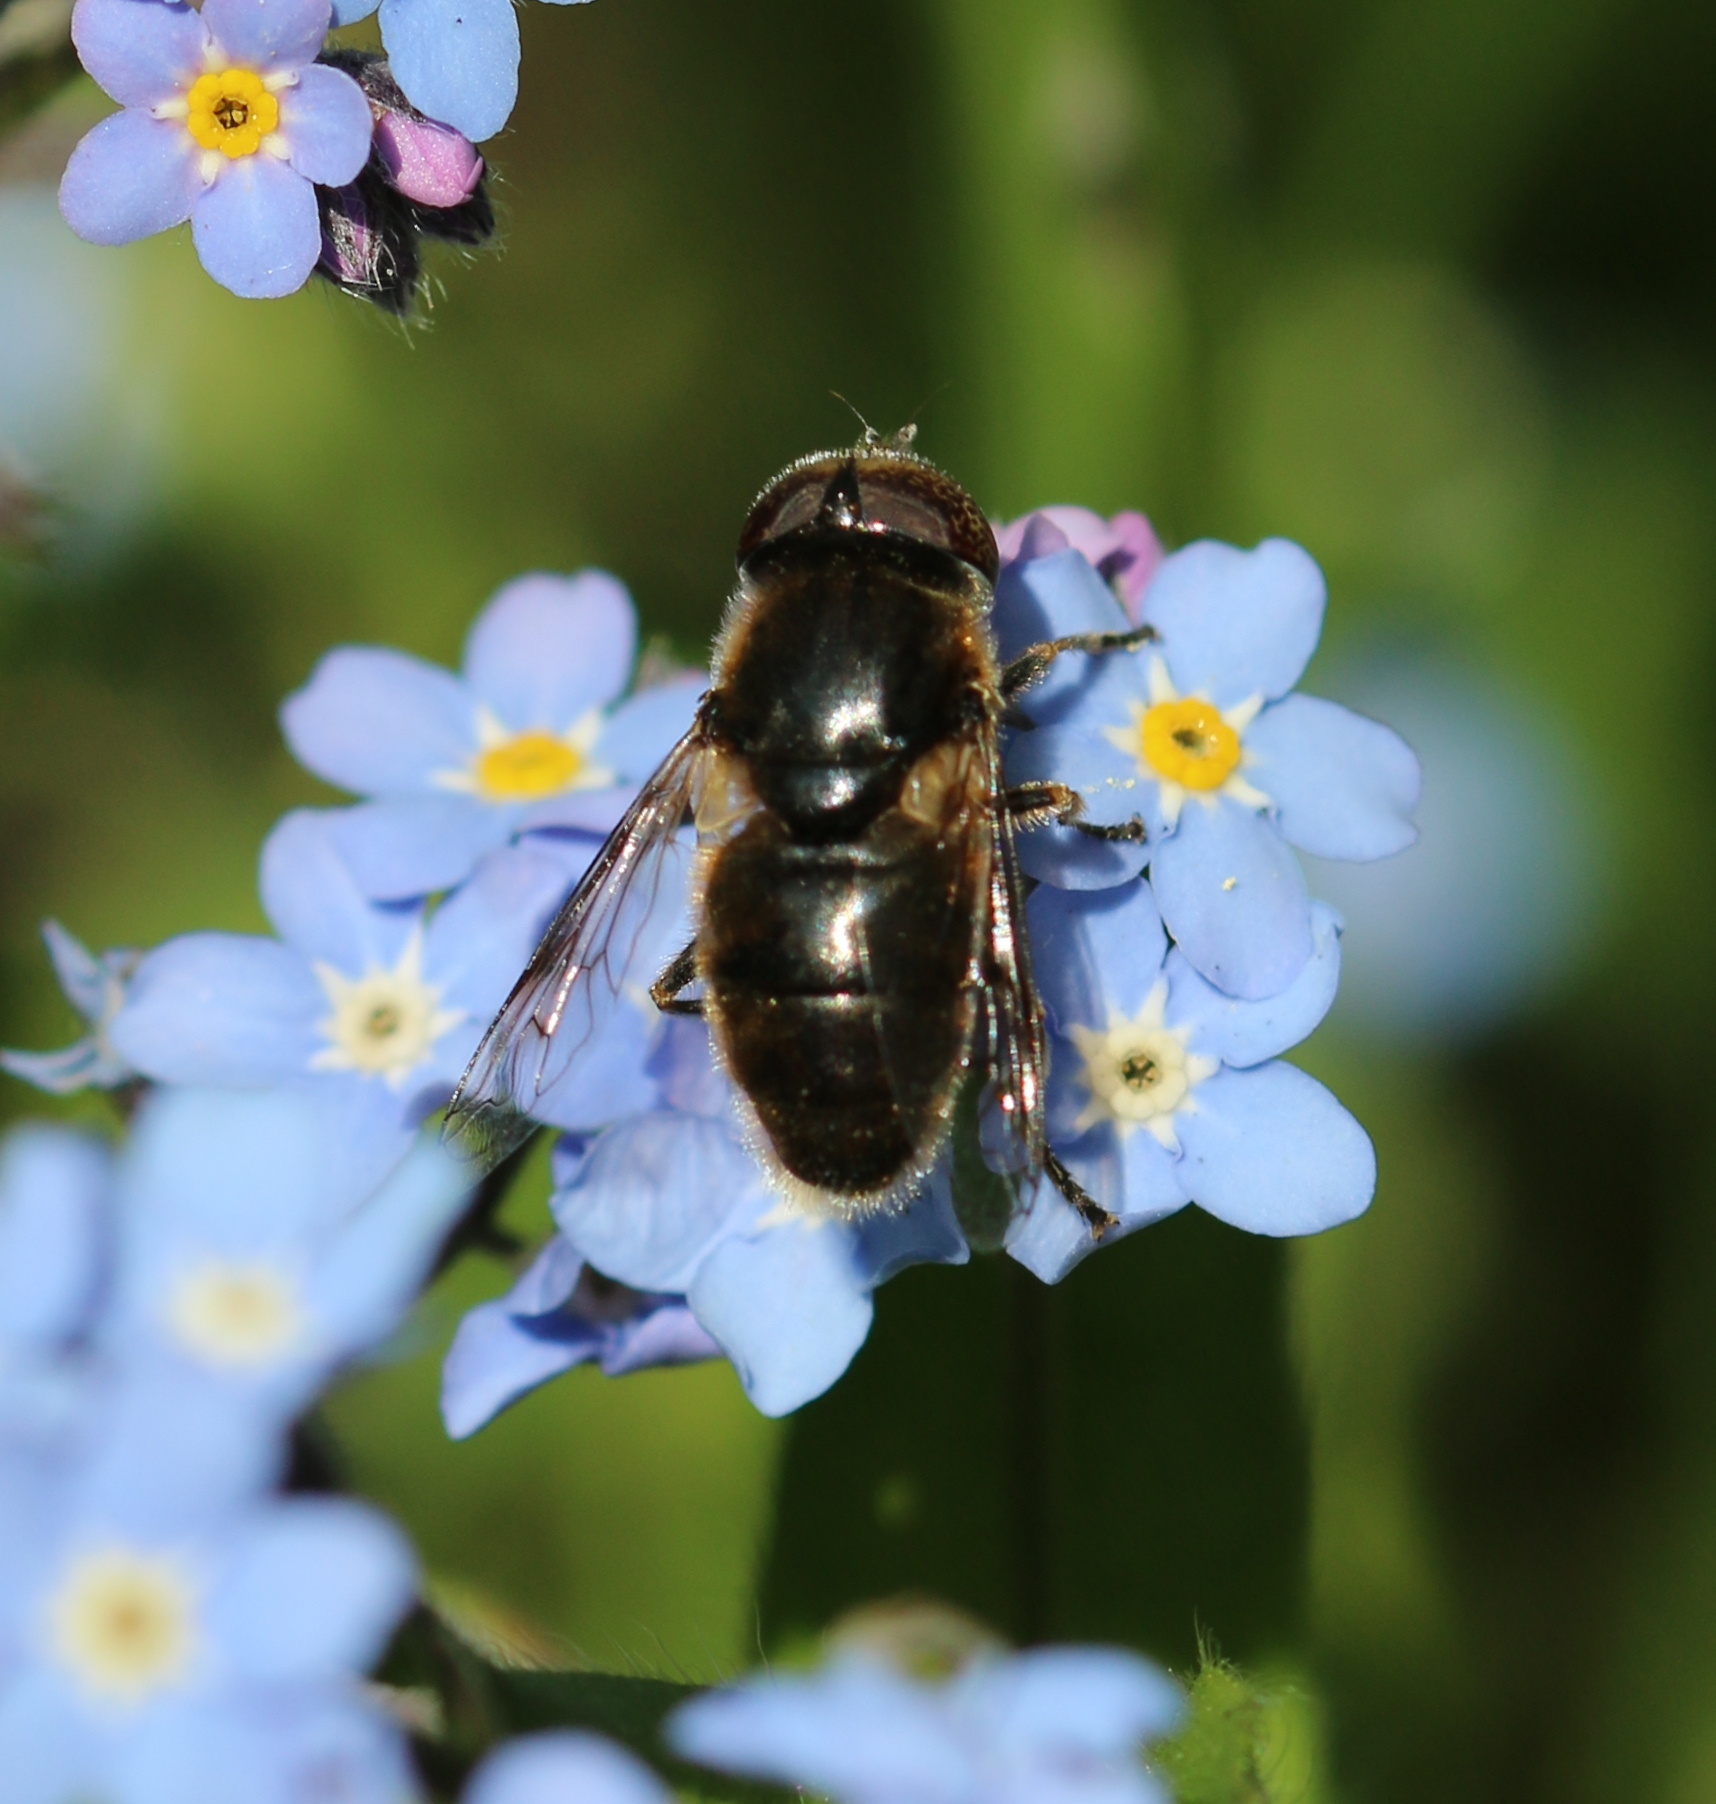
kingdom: Animalia
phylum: Arthropoda
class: Insecta
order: Diptera
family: Syrphidae
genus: Eristalinus
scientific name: Eristalinus aeneus
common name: Syrphid fly
